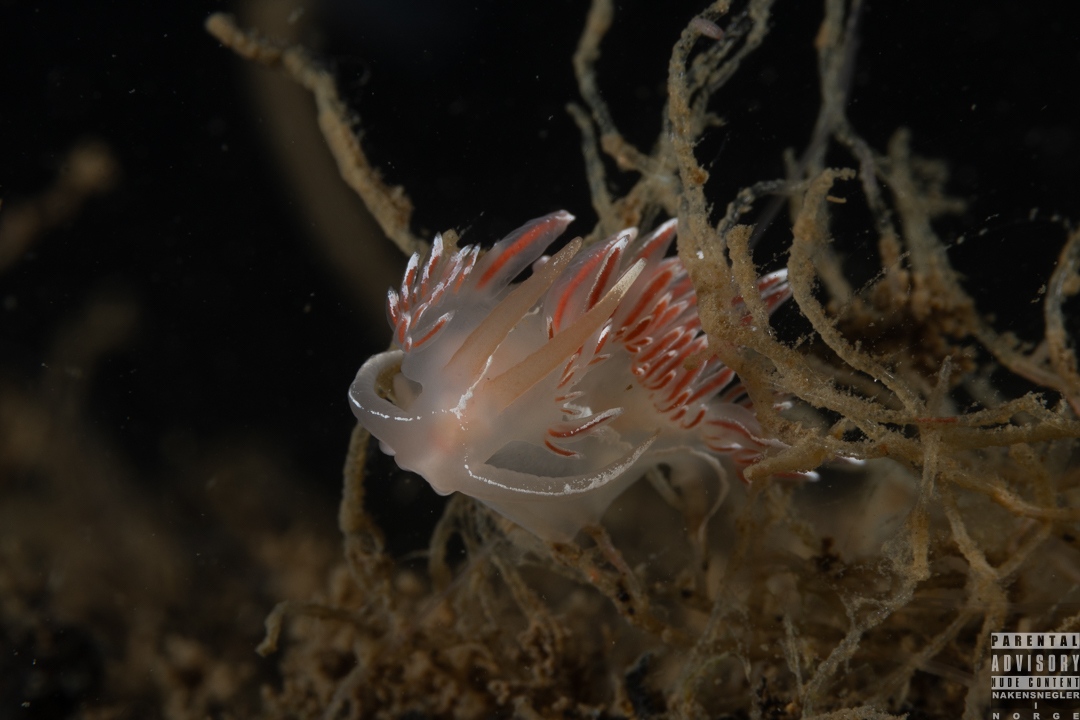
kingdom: Animalia
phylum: Mollusca
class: Gastropoda
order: Nudibranchia
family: Coryphellidae
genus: Coryphella
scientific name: Coryphella lineata
